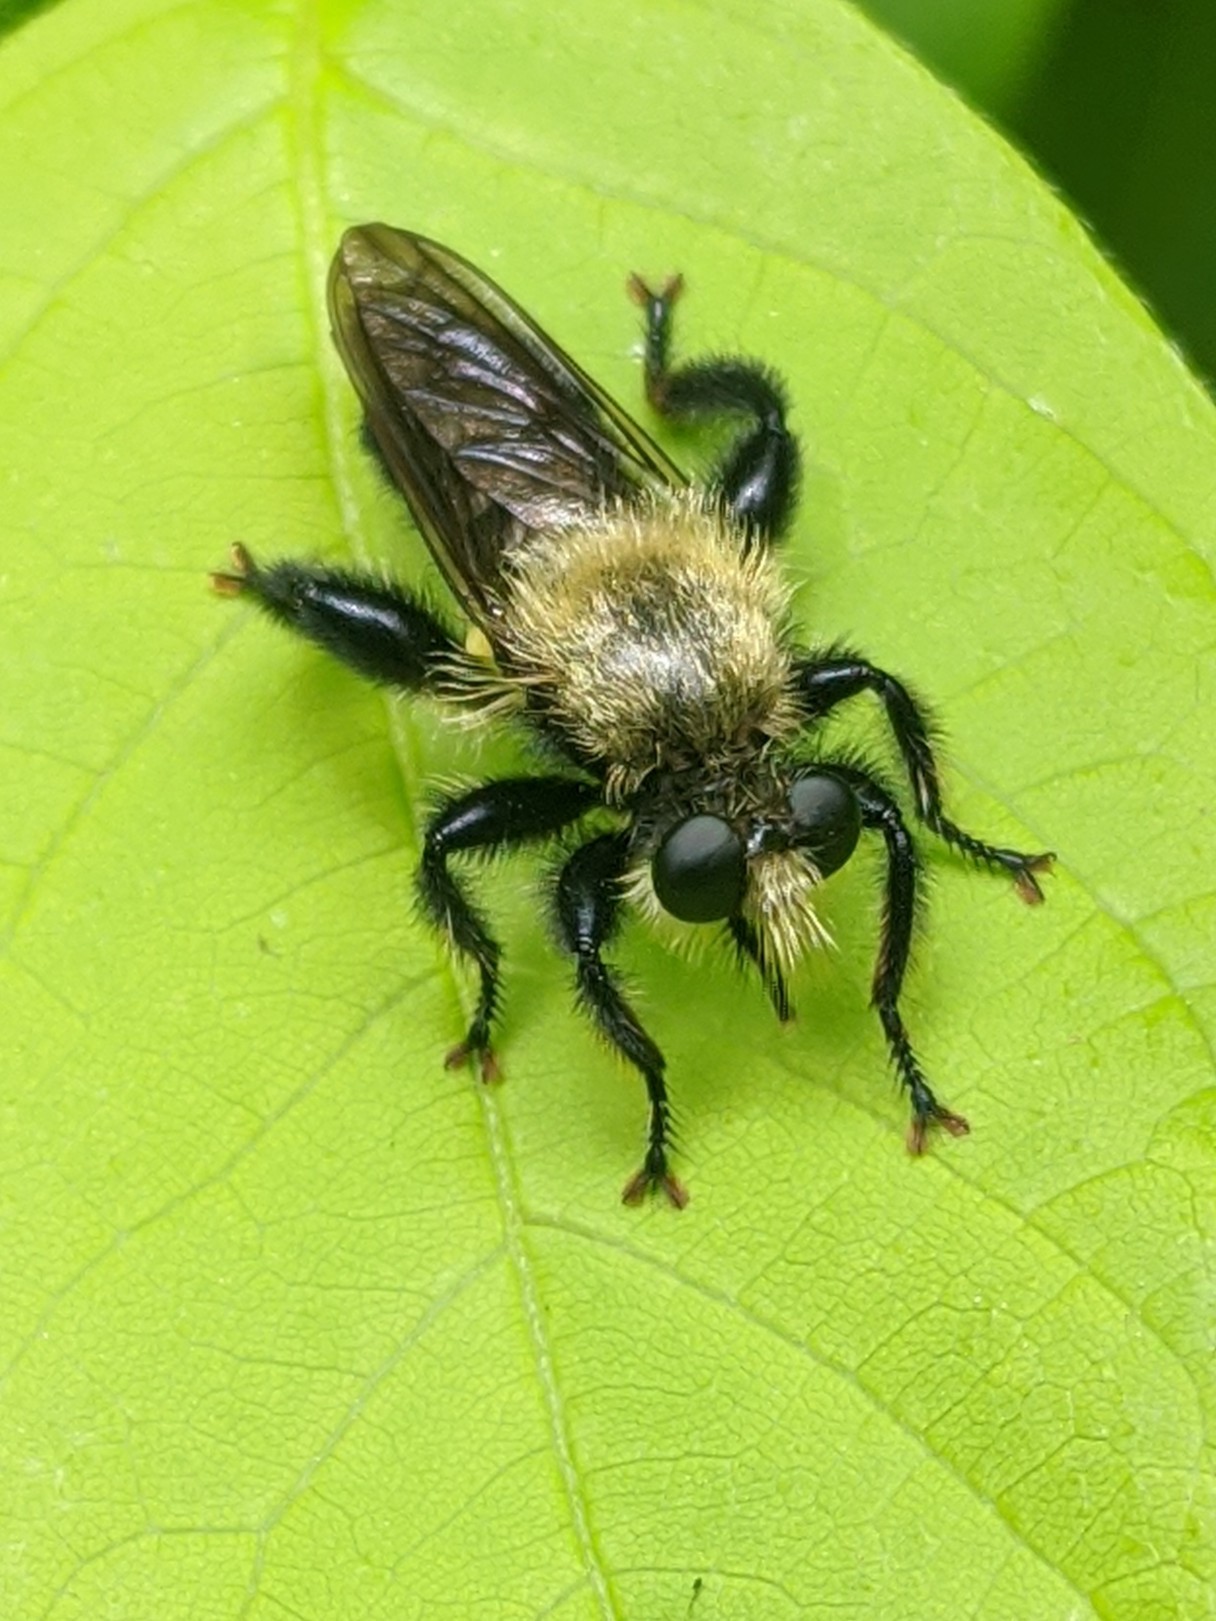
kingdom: Animalia
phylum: Arthropoda
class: Insecta
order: Diptera
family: Asilidae
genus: Laphria
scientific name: Laphria flavicollis
